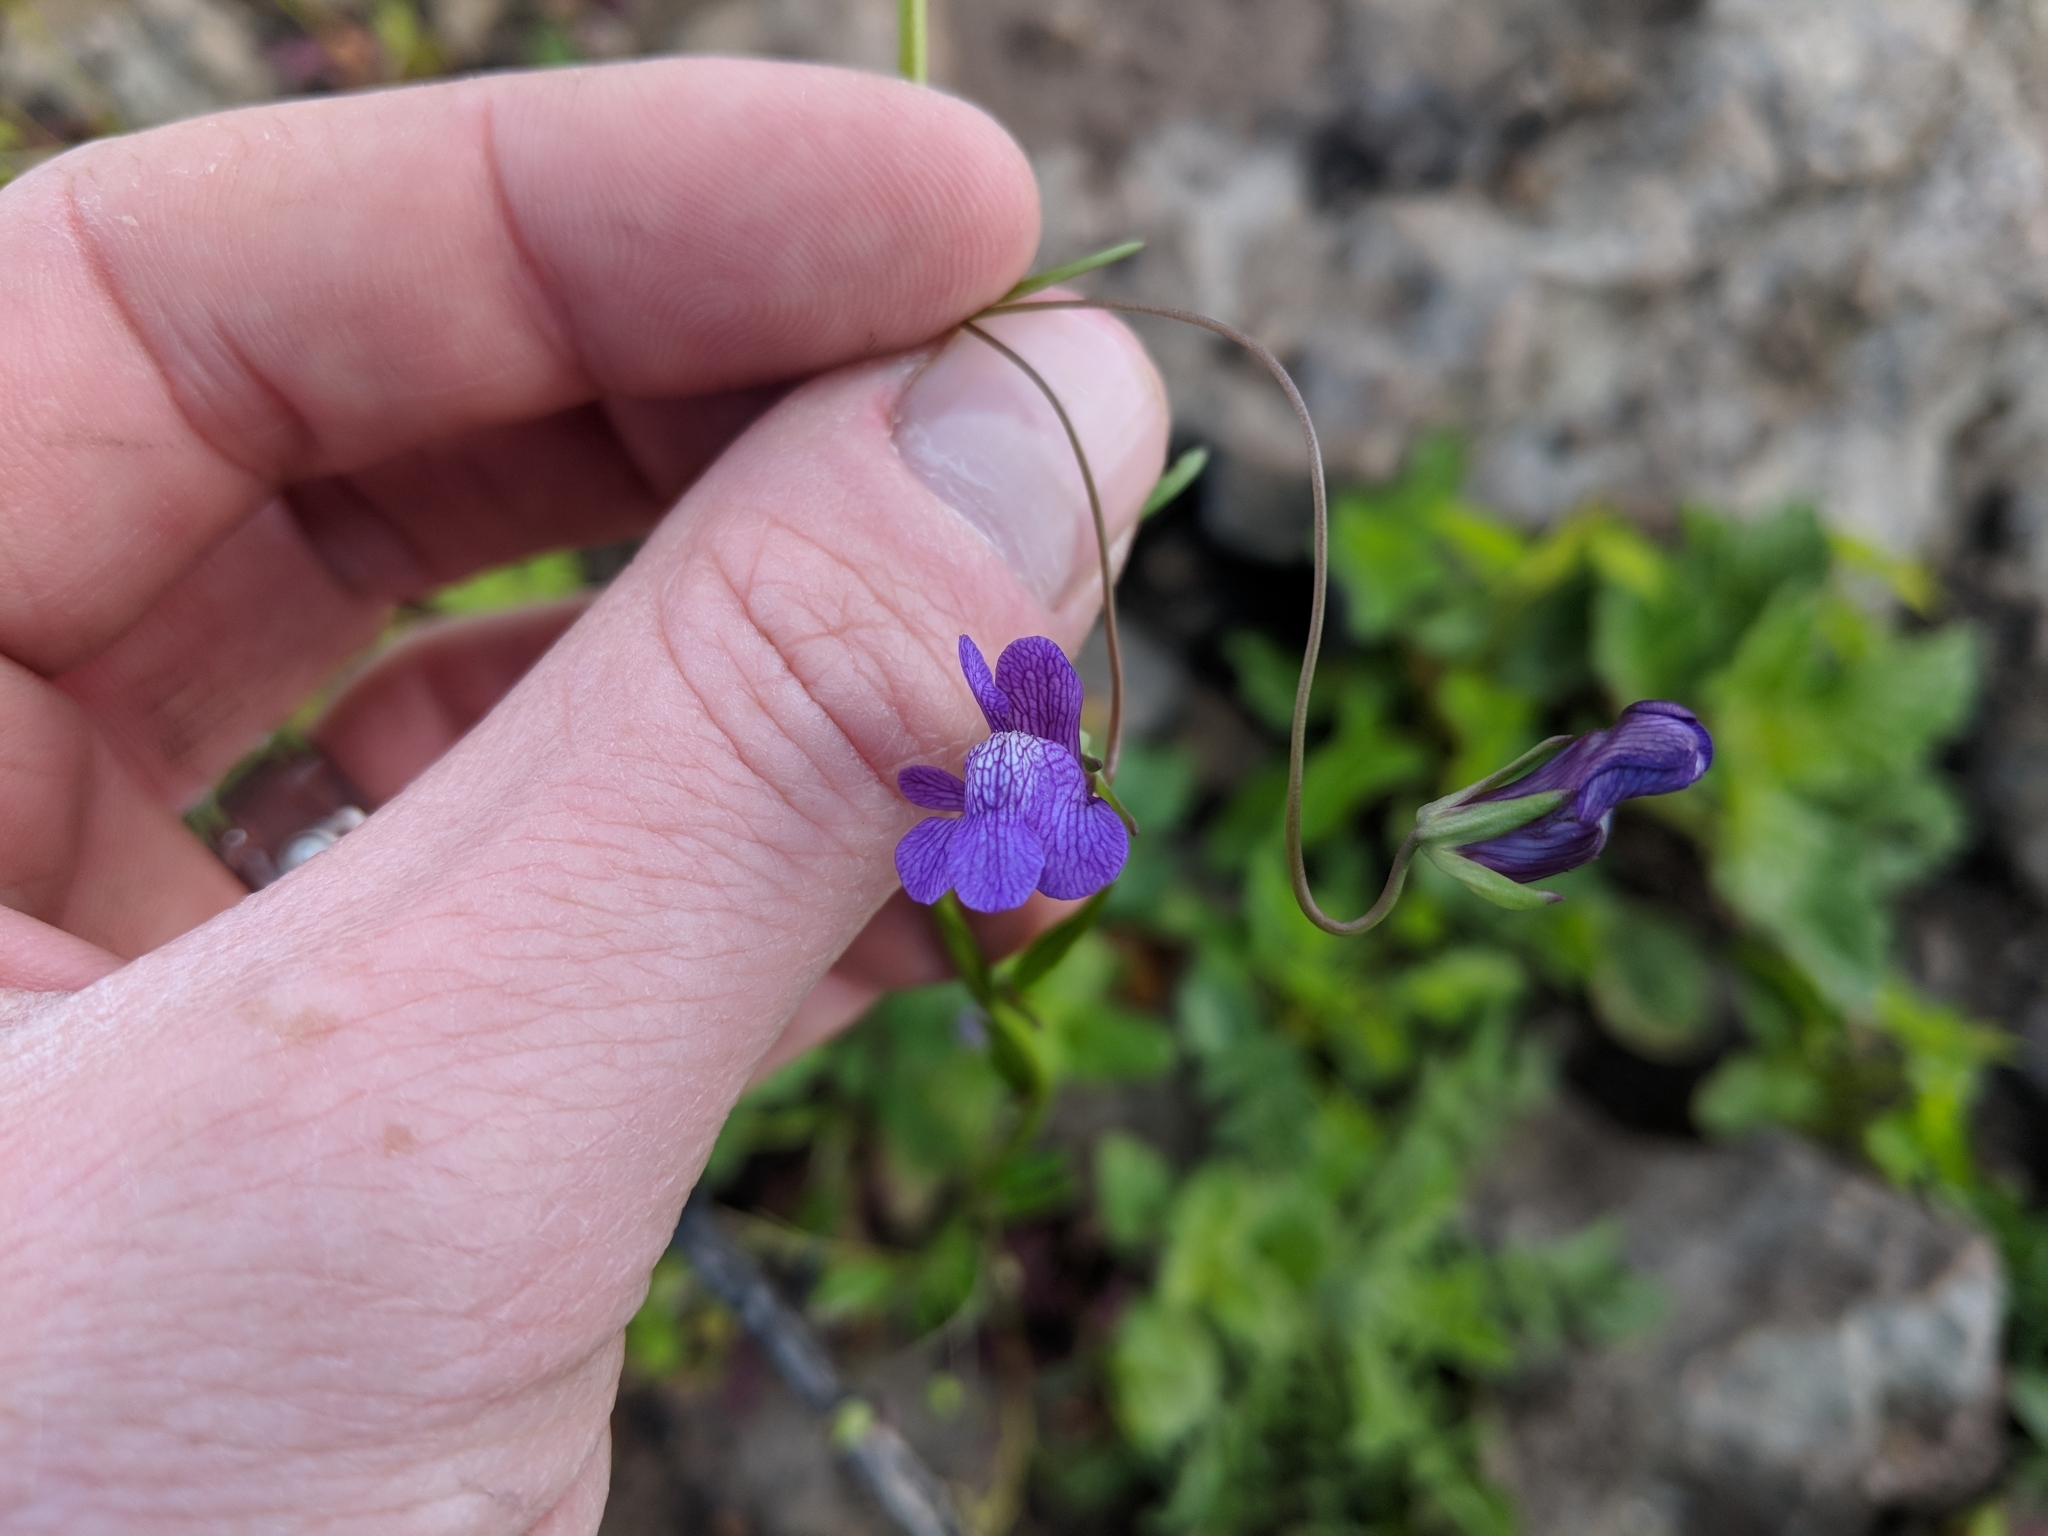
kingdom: Plantae
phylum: Tracheophyta
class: Magnoliopsida
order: Lamiales
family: Plantaginaceae
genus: Neogaerrhinum
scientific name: Neogaerrhinum strictum
